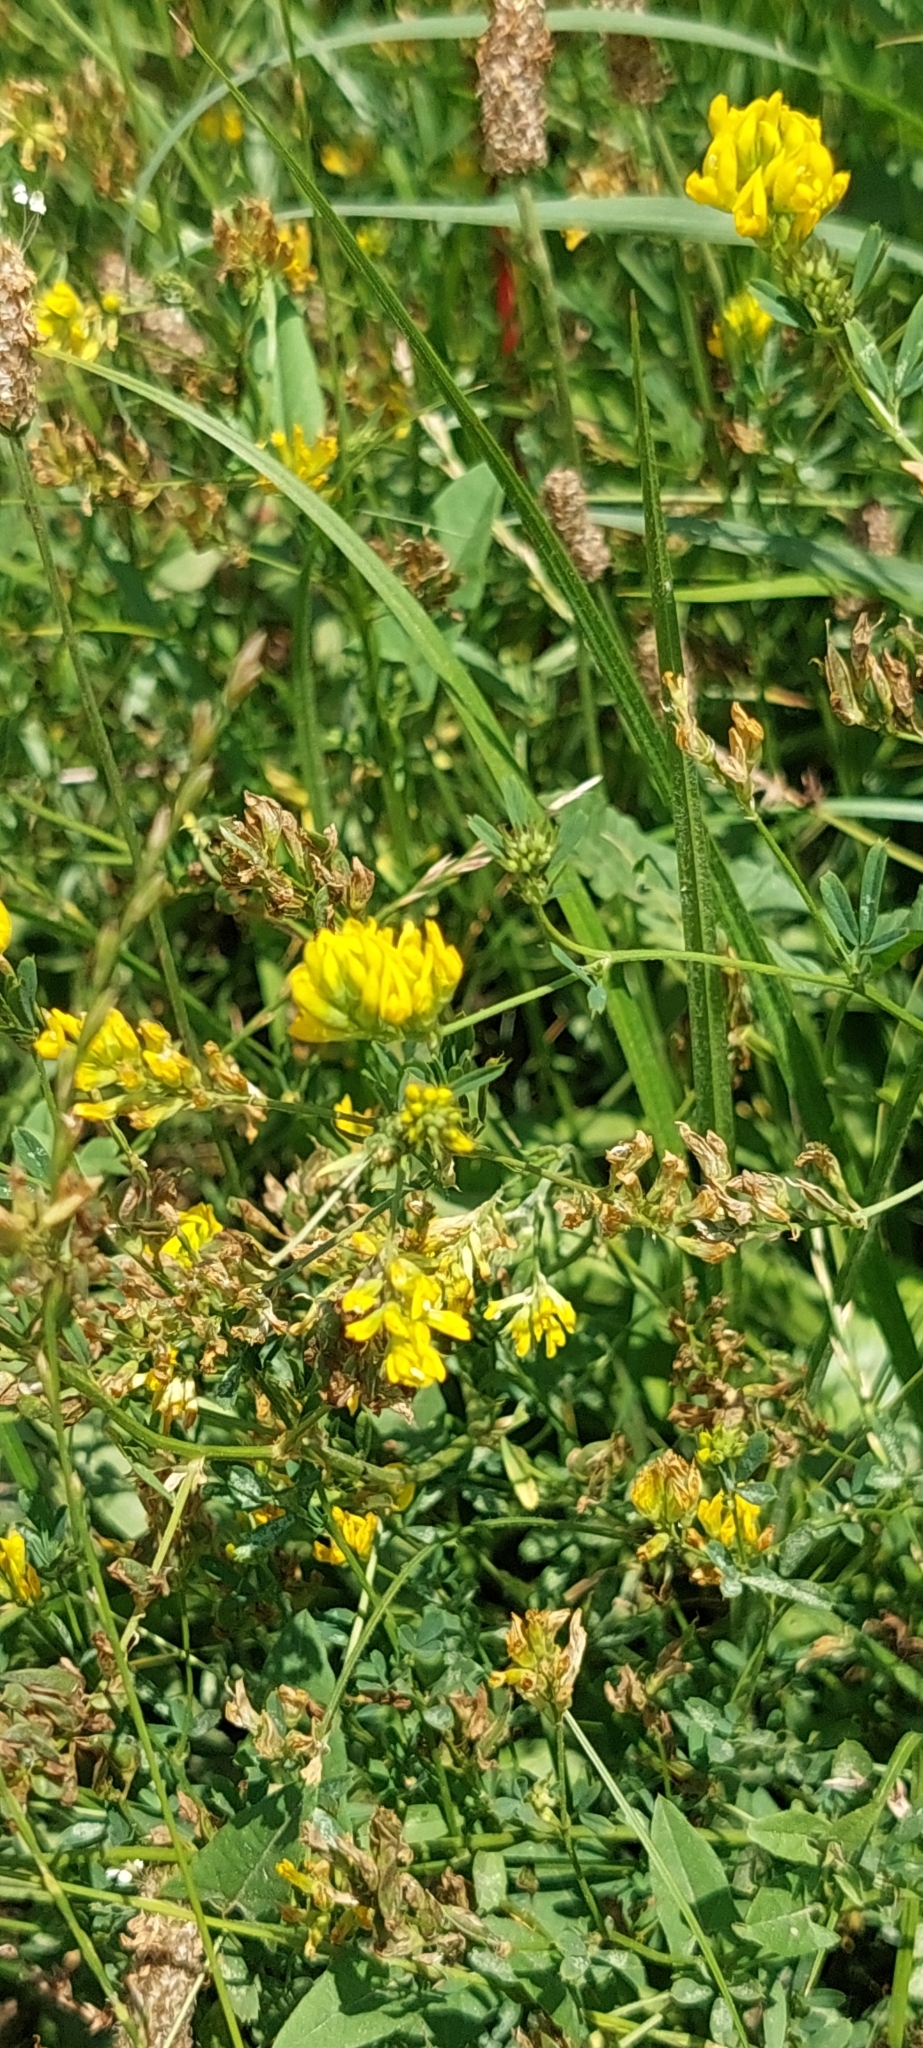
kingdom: Plantae
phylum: Tracheophyta
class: Magnoliopsida
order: Fabales
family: Fabaceae
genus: Medicago
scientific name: Medicago falcata
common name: Sickle medick
